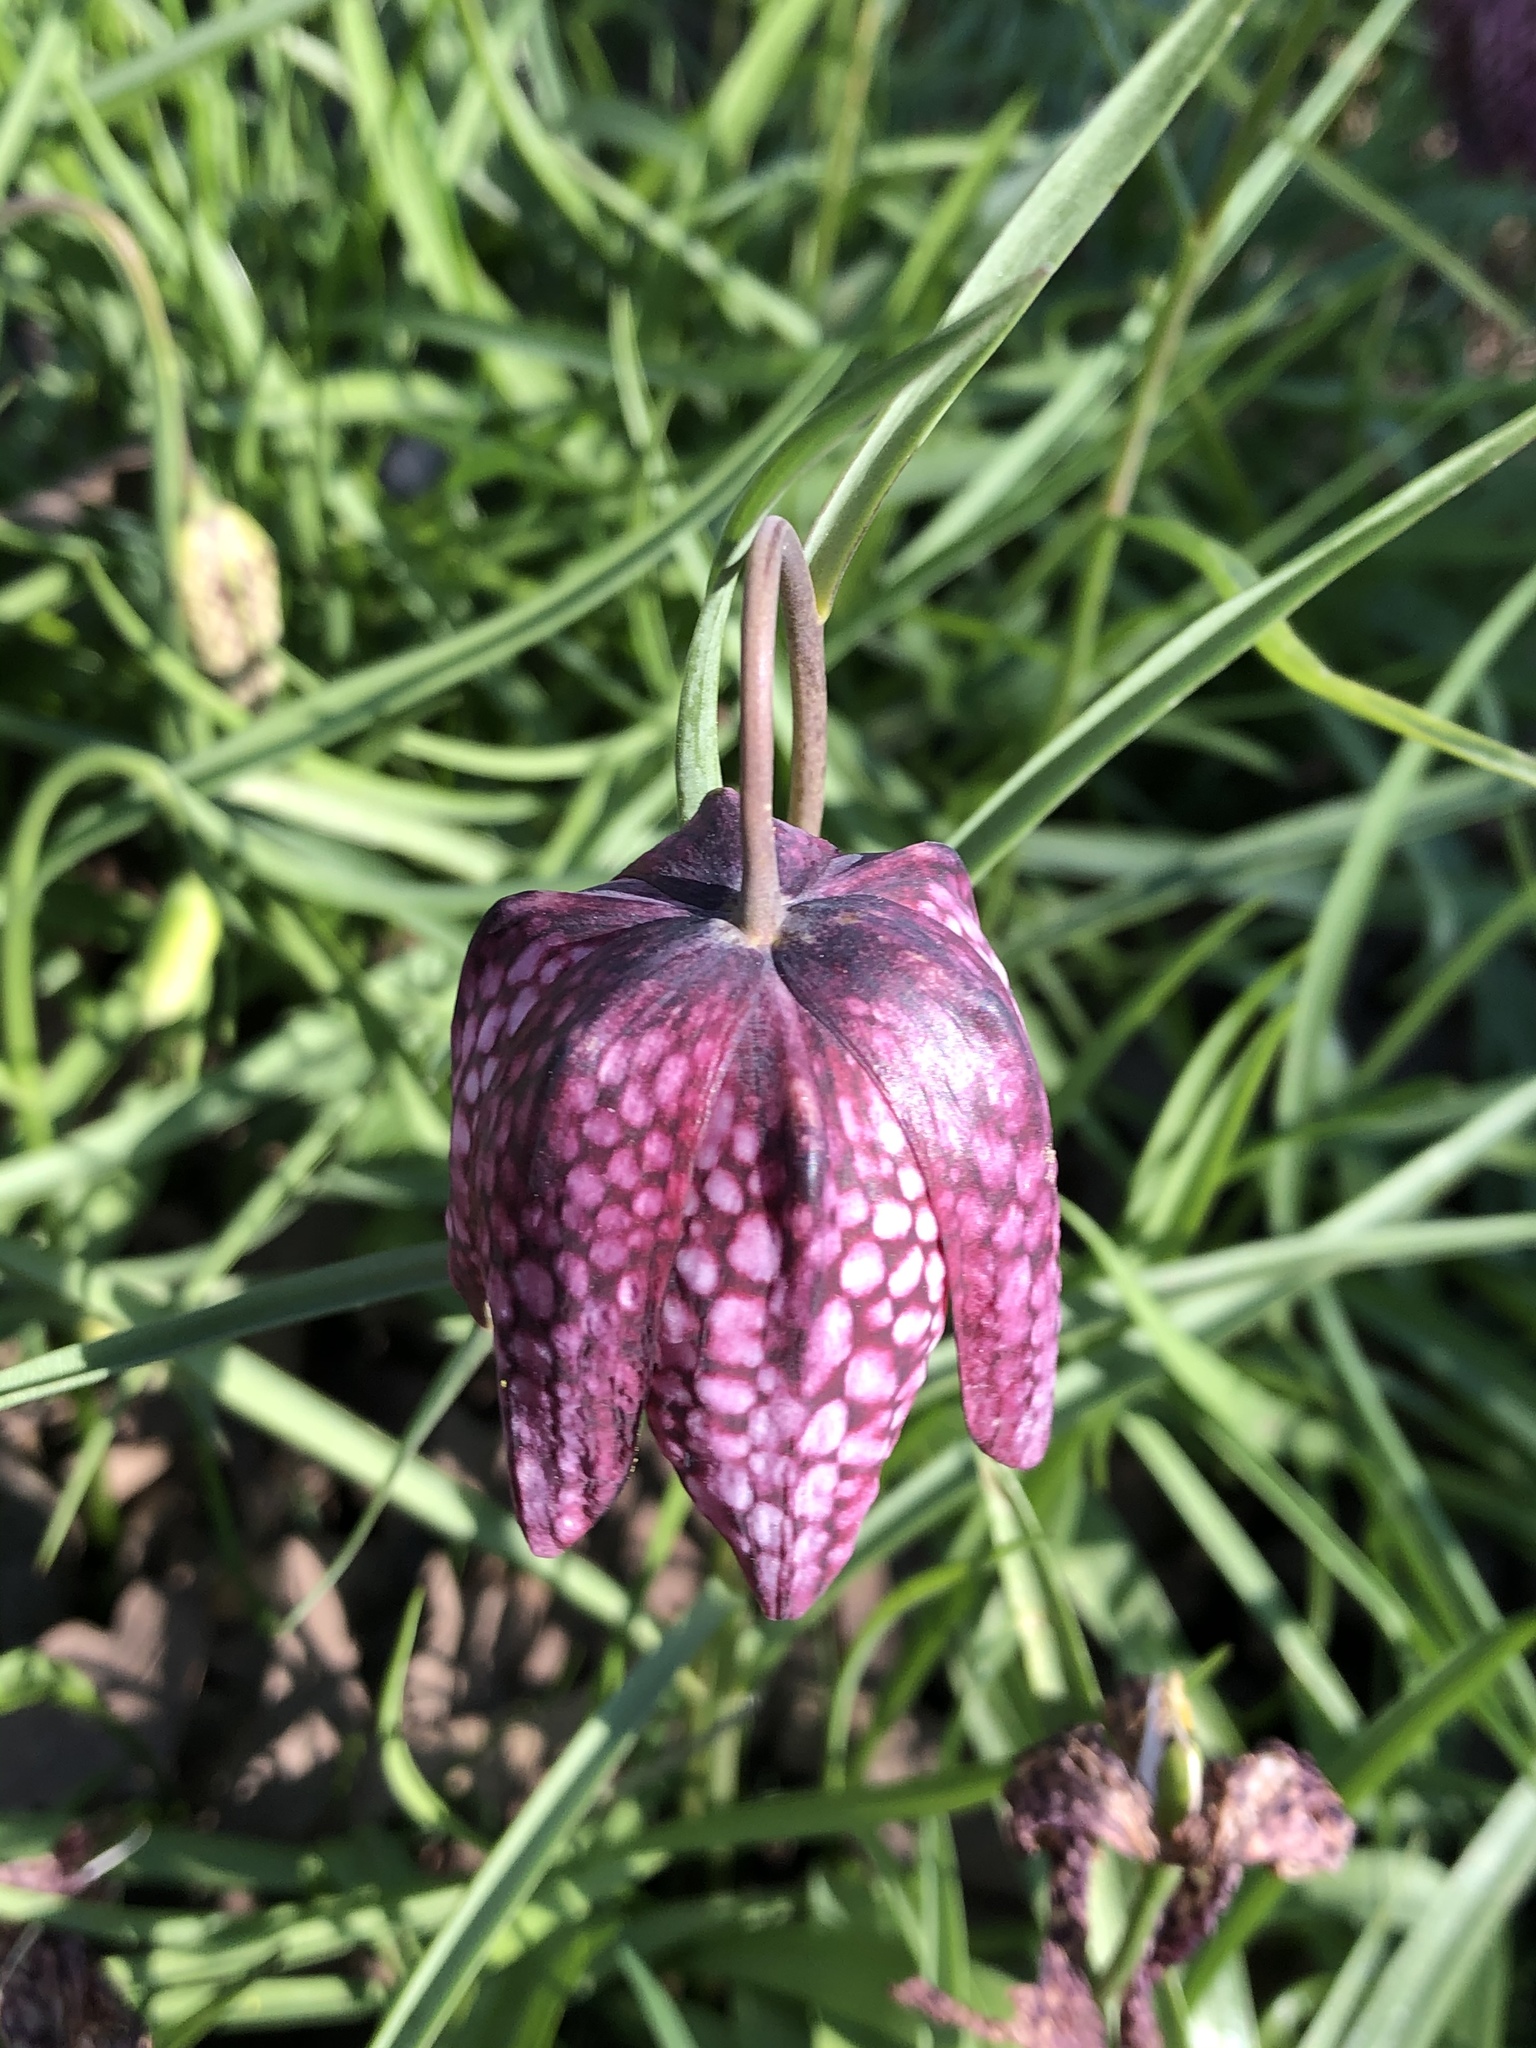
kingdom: Plantae
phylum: Tracheophyta
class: Liliopsida
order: Liliales
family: Liliaceae
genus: Fritillaria
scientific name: Fritillaria meleagris
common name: Fritillary
